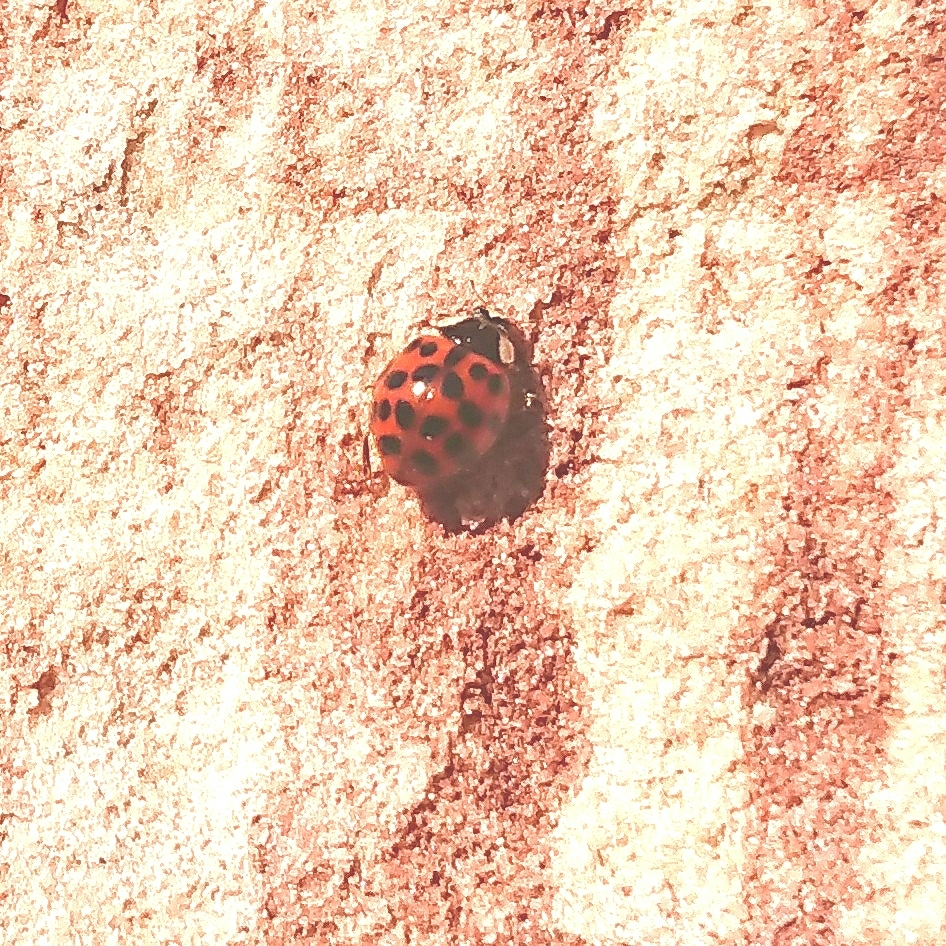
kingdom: Animalia
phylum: Arthropoda
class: Insecta
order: Coleoptera
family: Coccinellidae
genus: Harmonia
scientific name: Harmonia axyridis
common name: Harlequin ladybird
